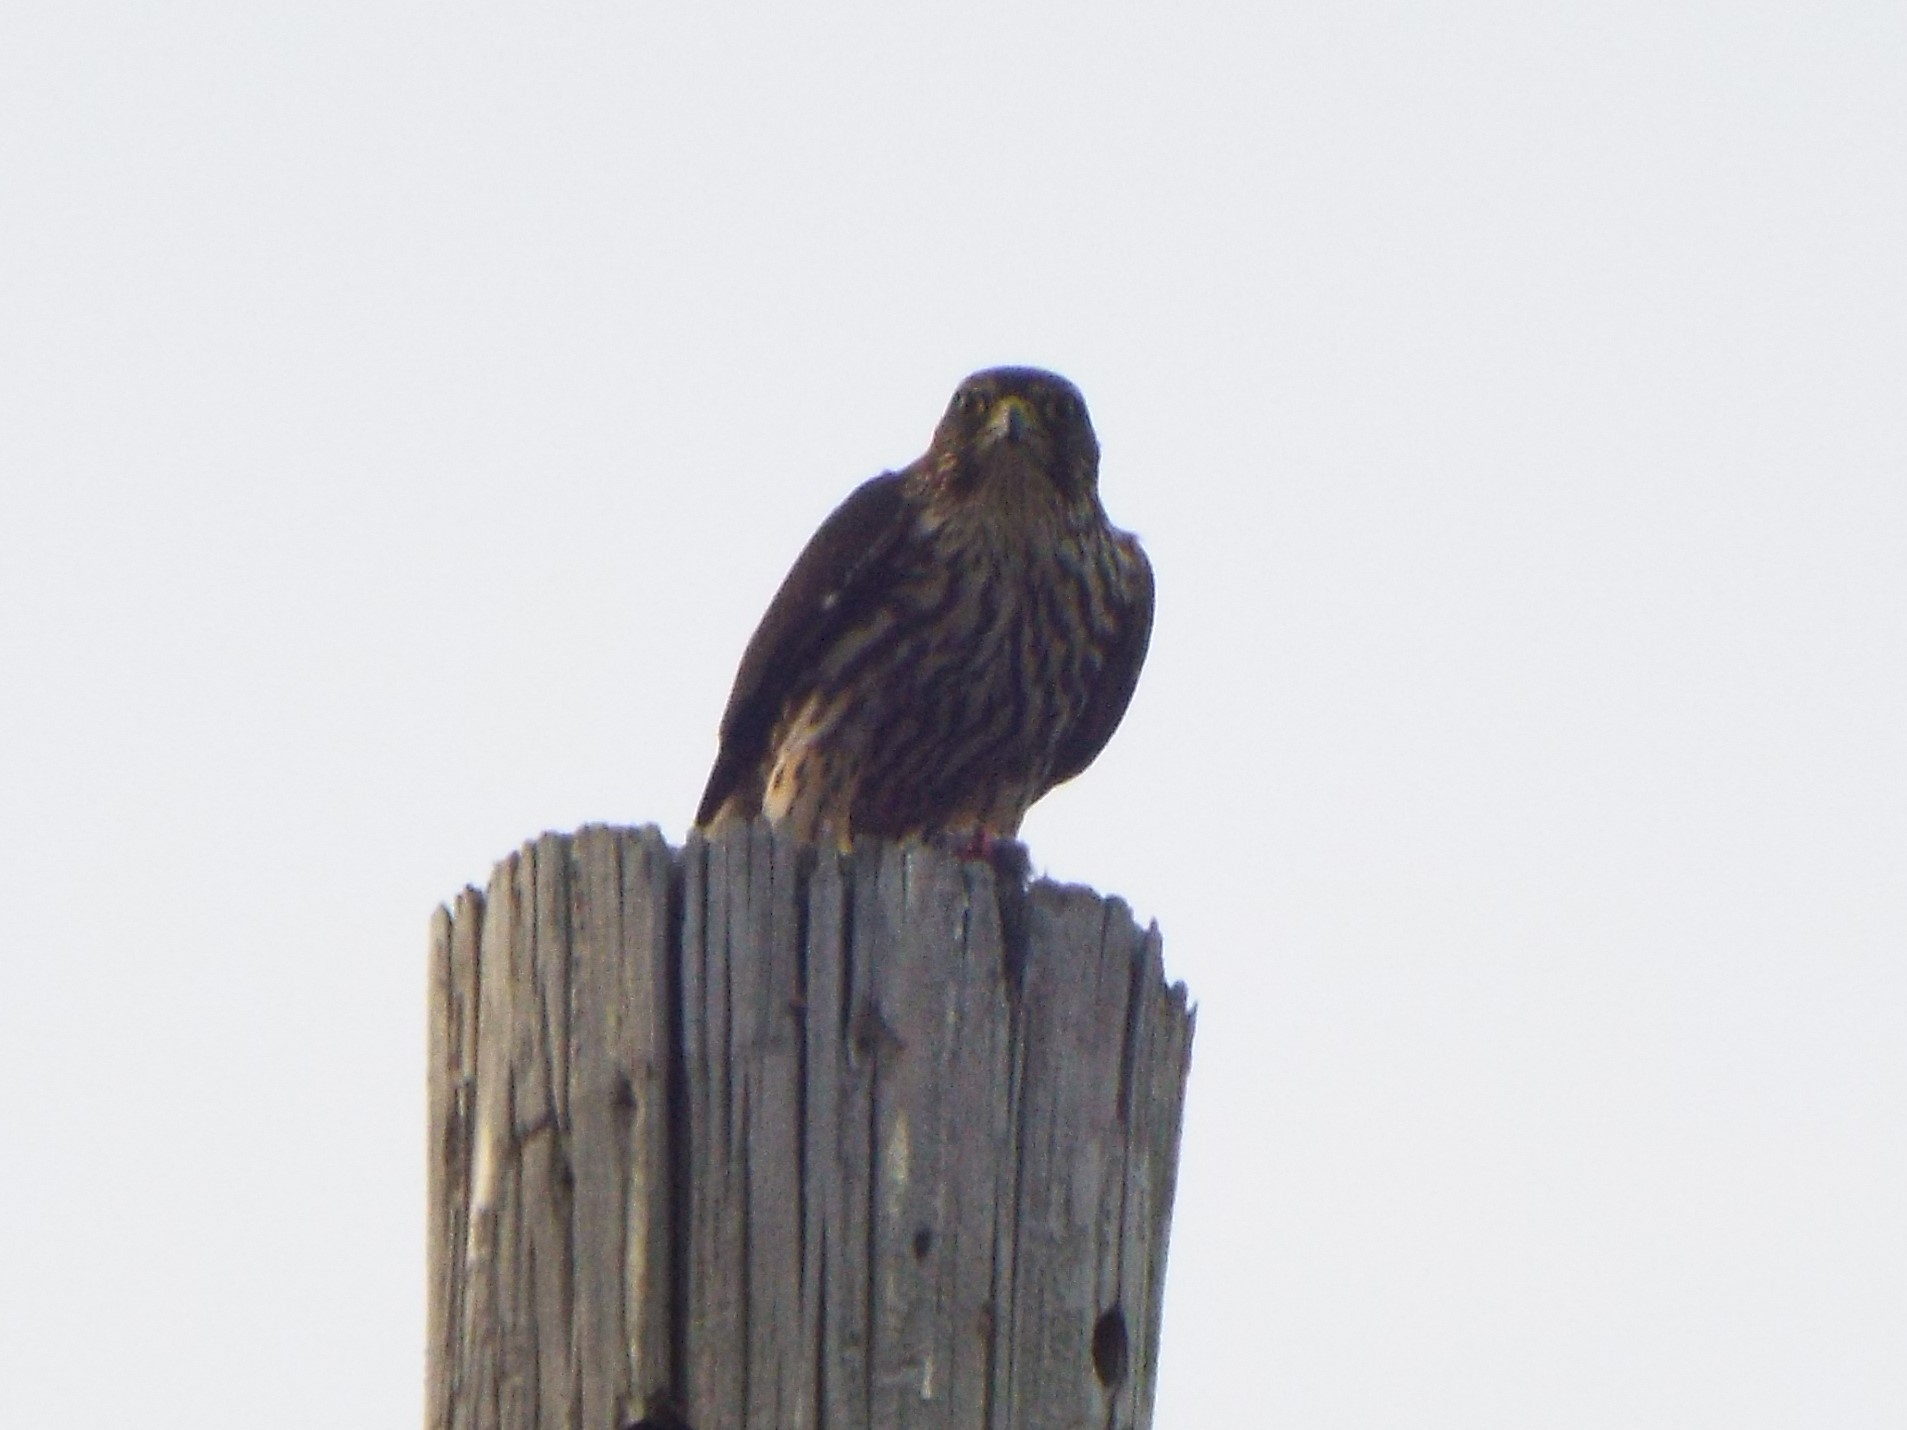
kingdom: Animalia
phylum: Chordata
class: Aves
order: Falconiformes
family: Falconidae
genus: Falco
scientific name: Falco columbarius
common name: Merlin
